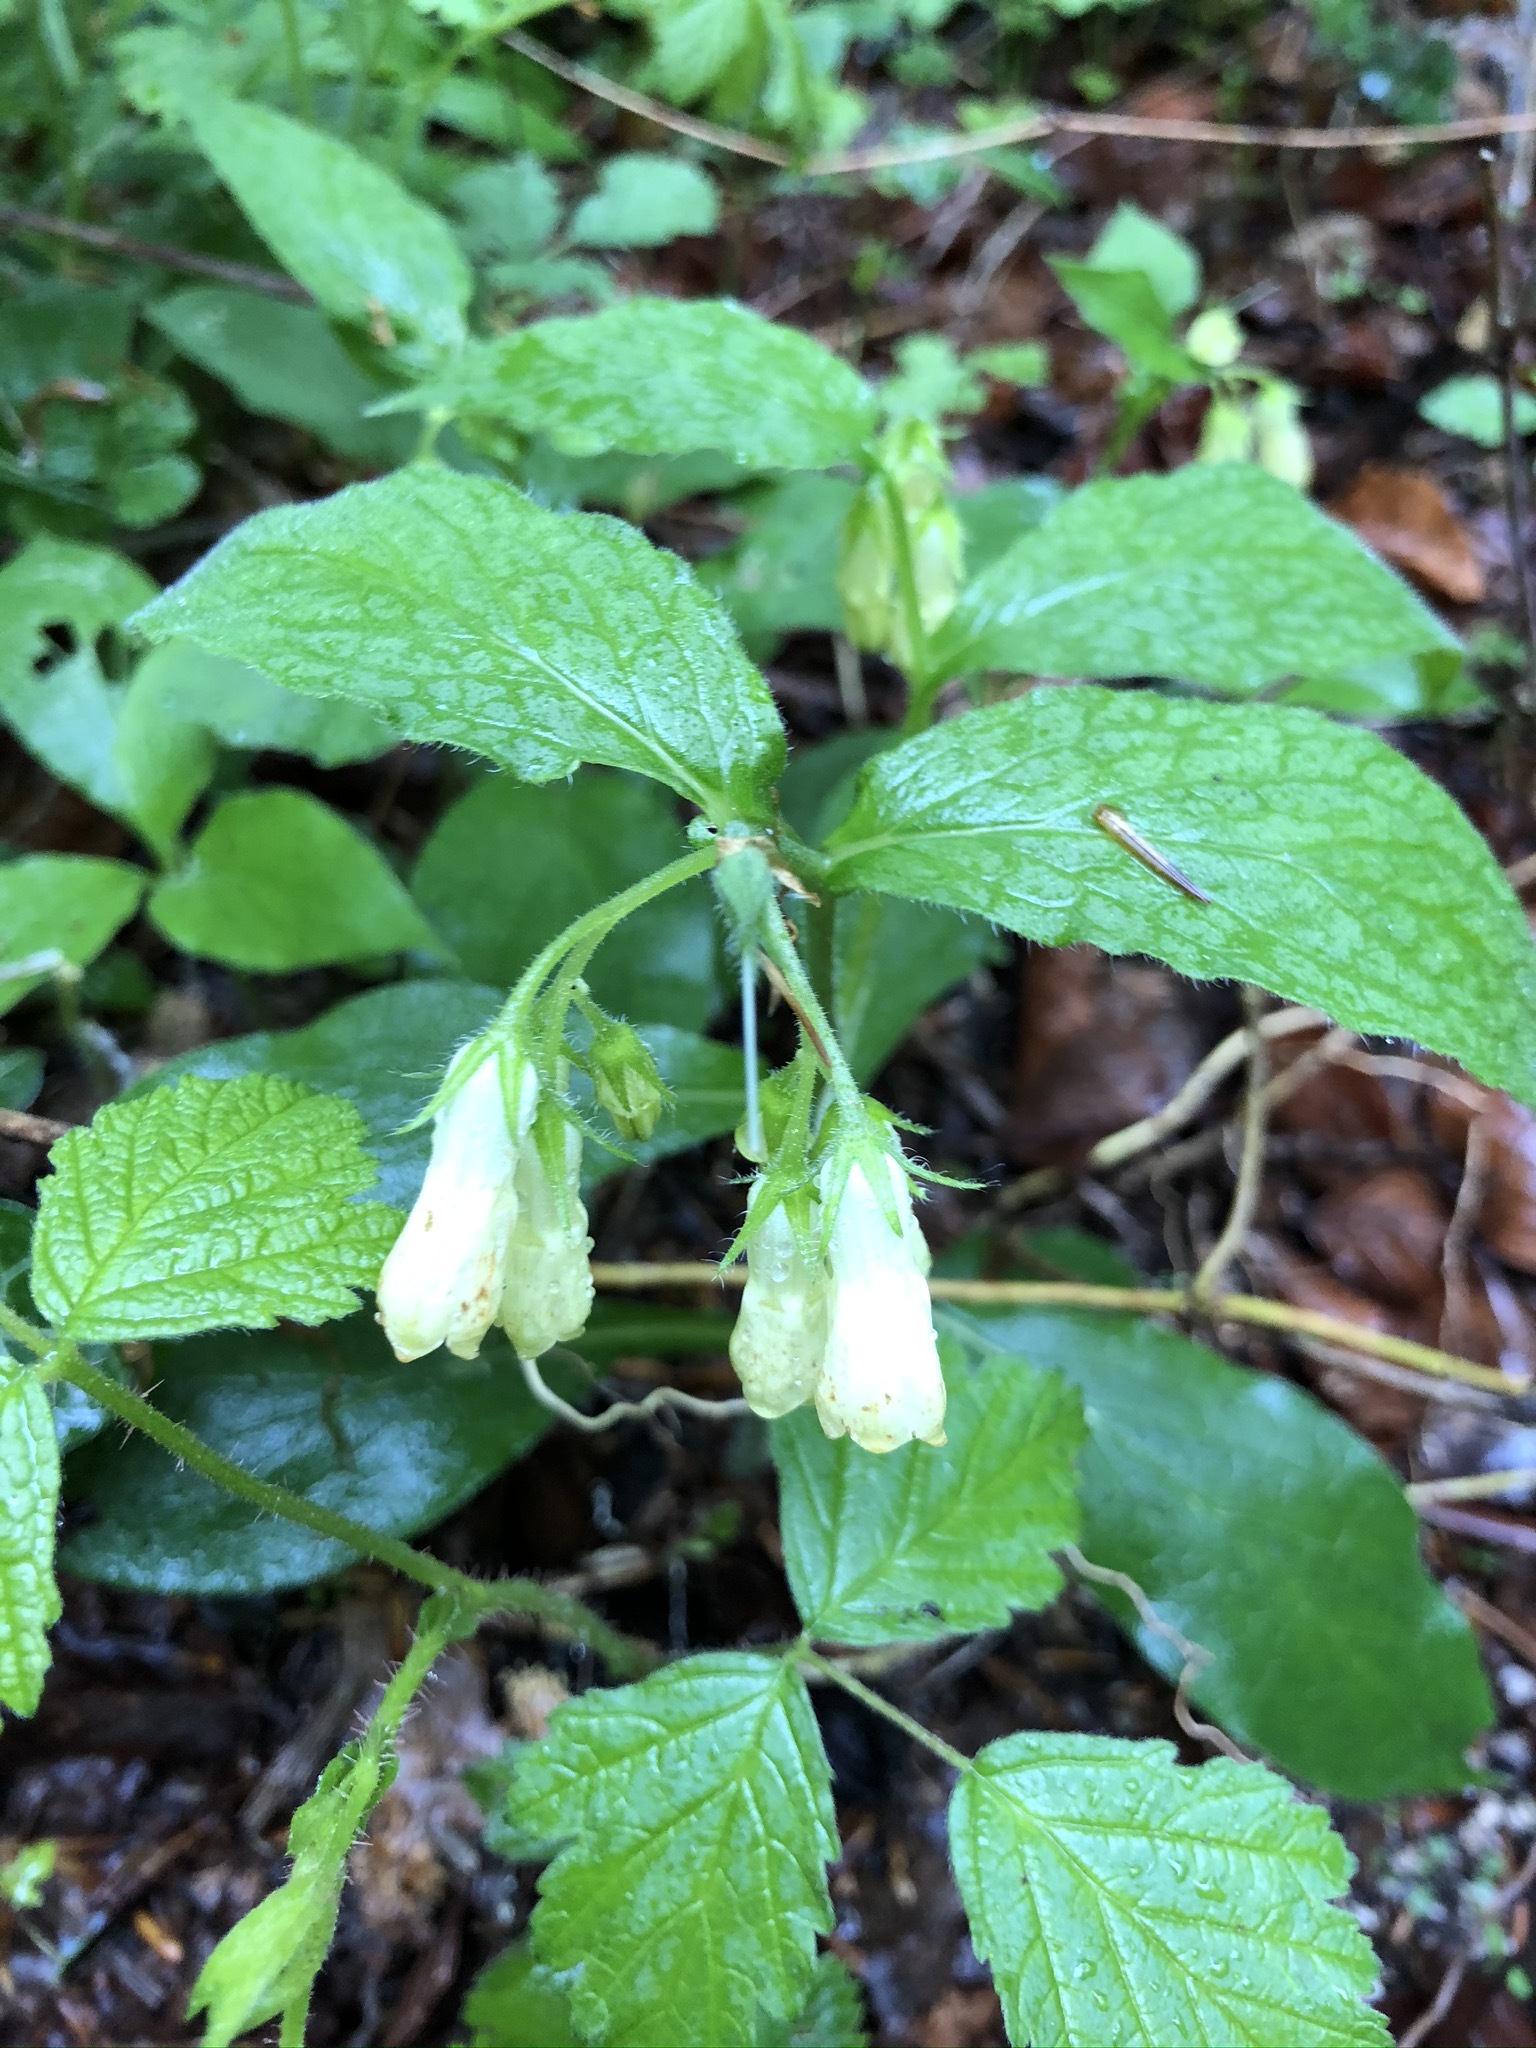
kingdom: Plantae
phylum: Tracheophyta
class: Magnoliopsida
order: Boraginales
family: Boraginaceae
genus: Symphytum
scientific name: Symphytum tuberosum
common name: Tuberous comfrey
